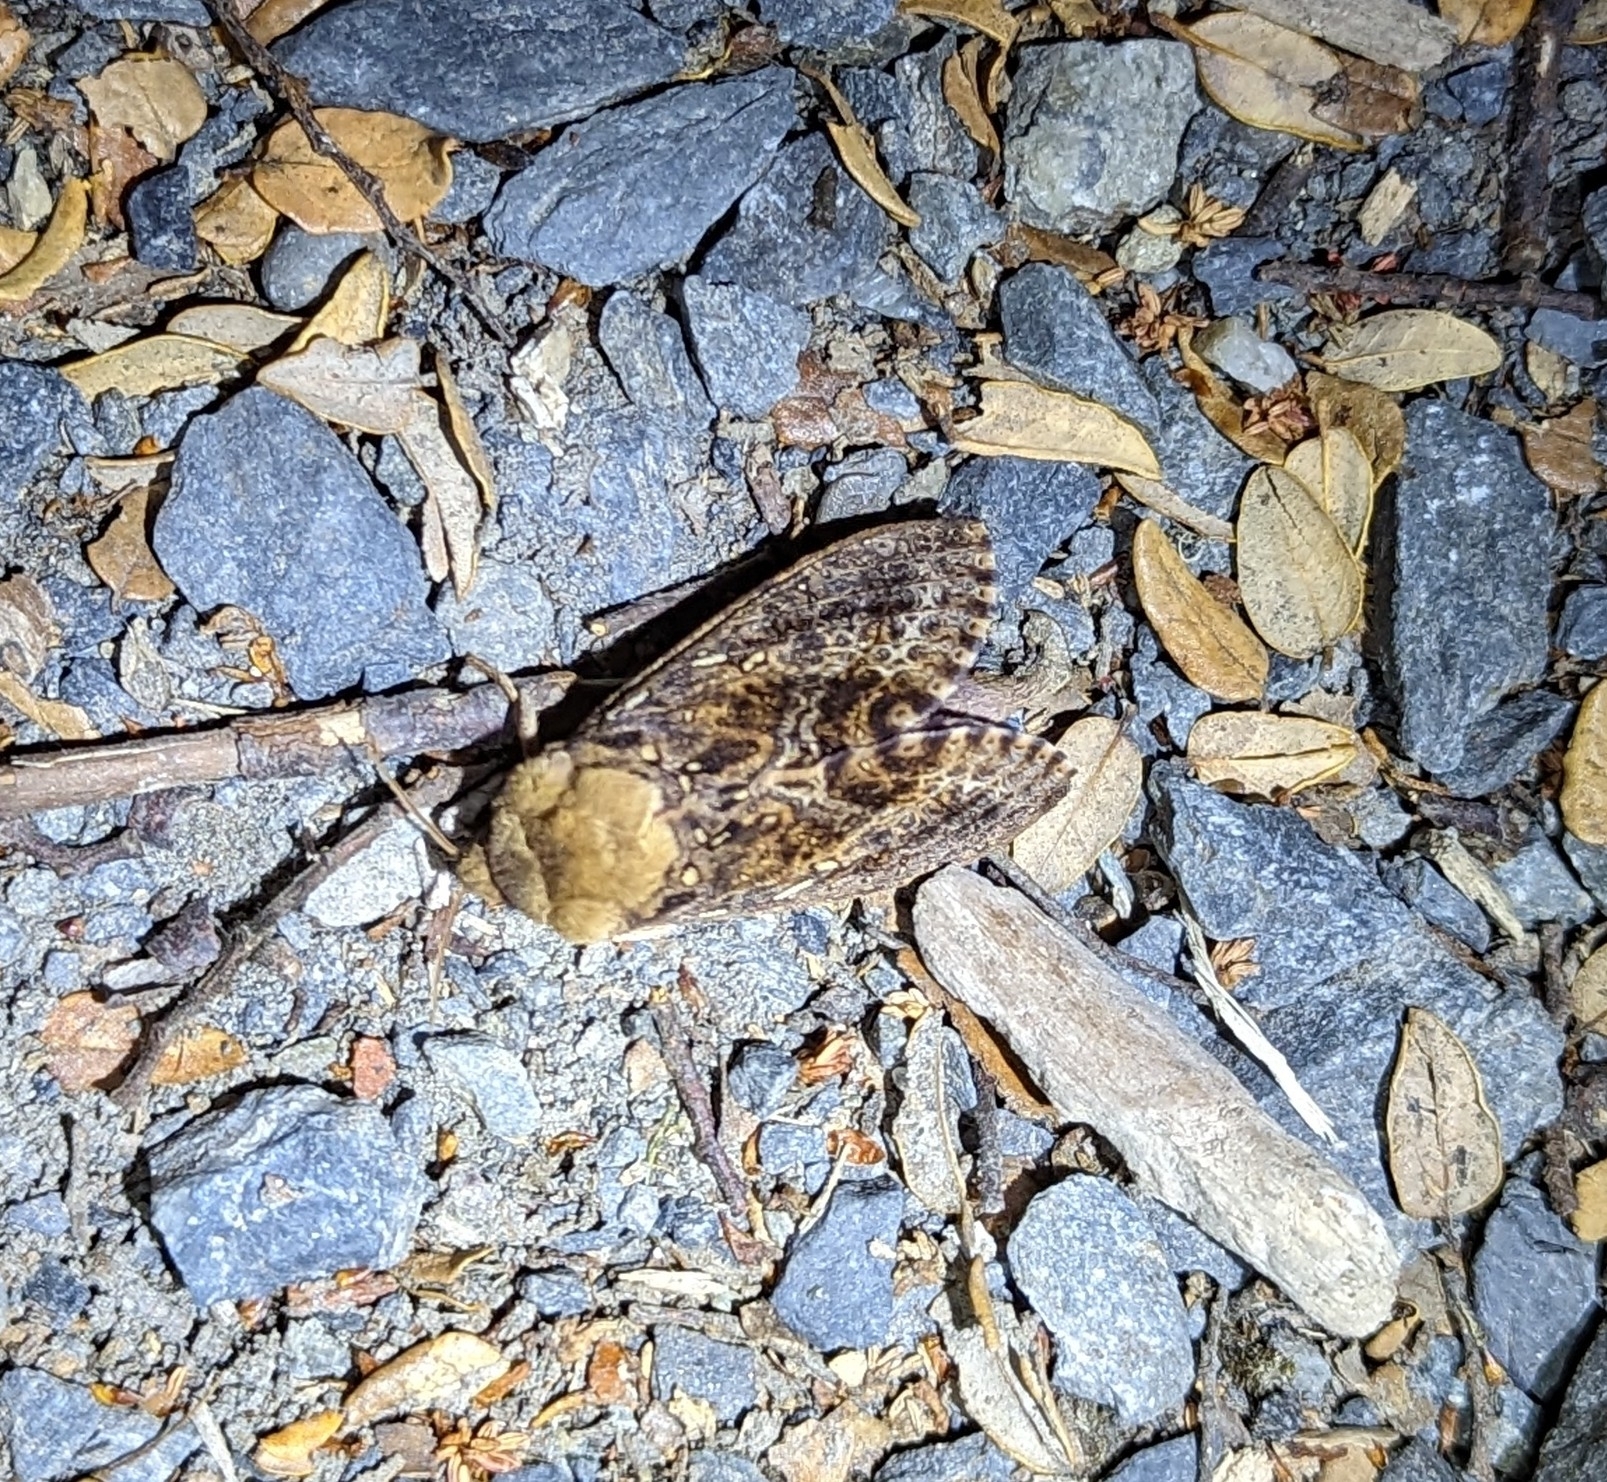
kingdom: Animalia
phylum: Arthropoda
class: Insecta
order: Lepidoptera
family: Hepialidae
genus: Dumbletonius
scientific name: Dumbletonius unimaculata
